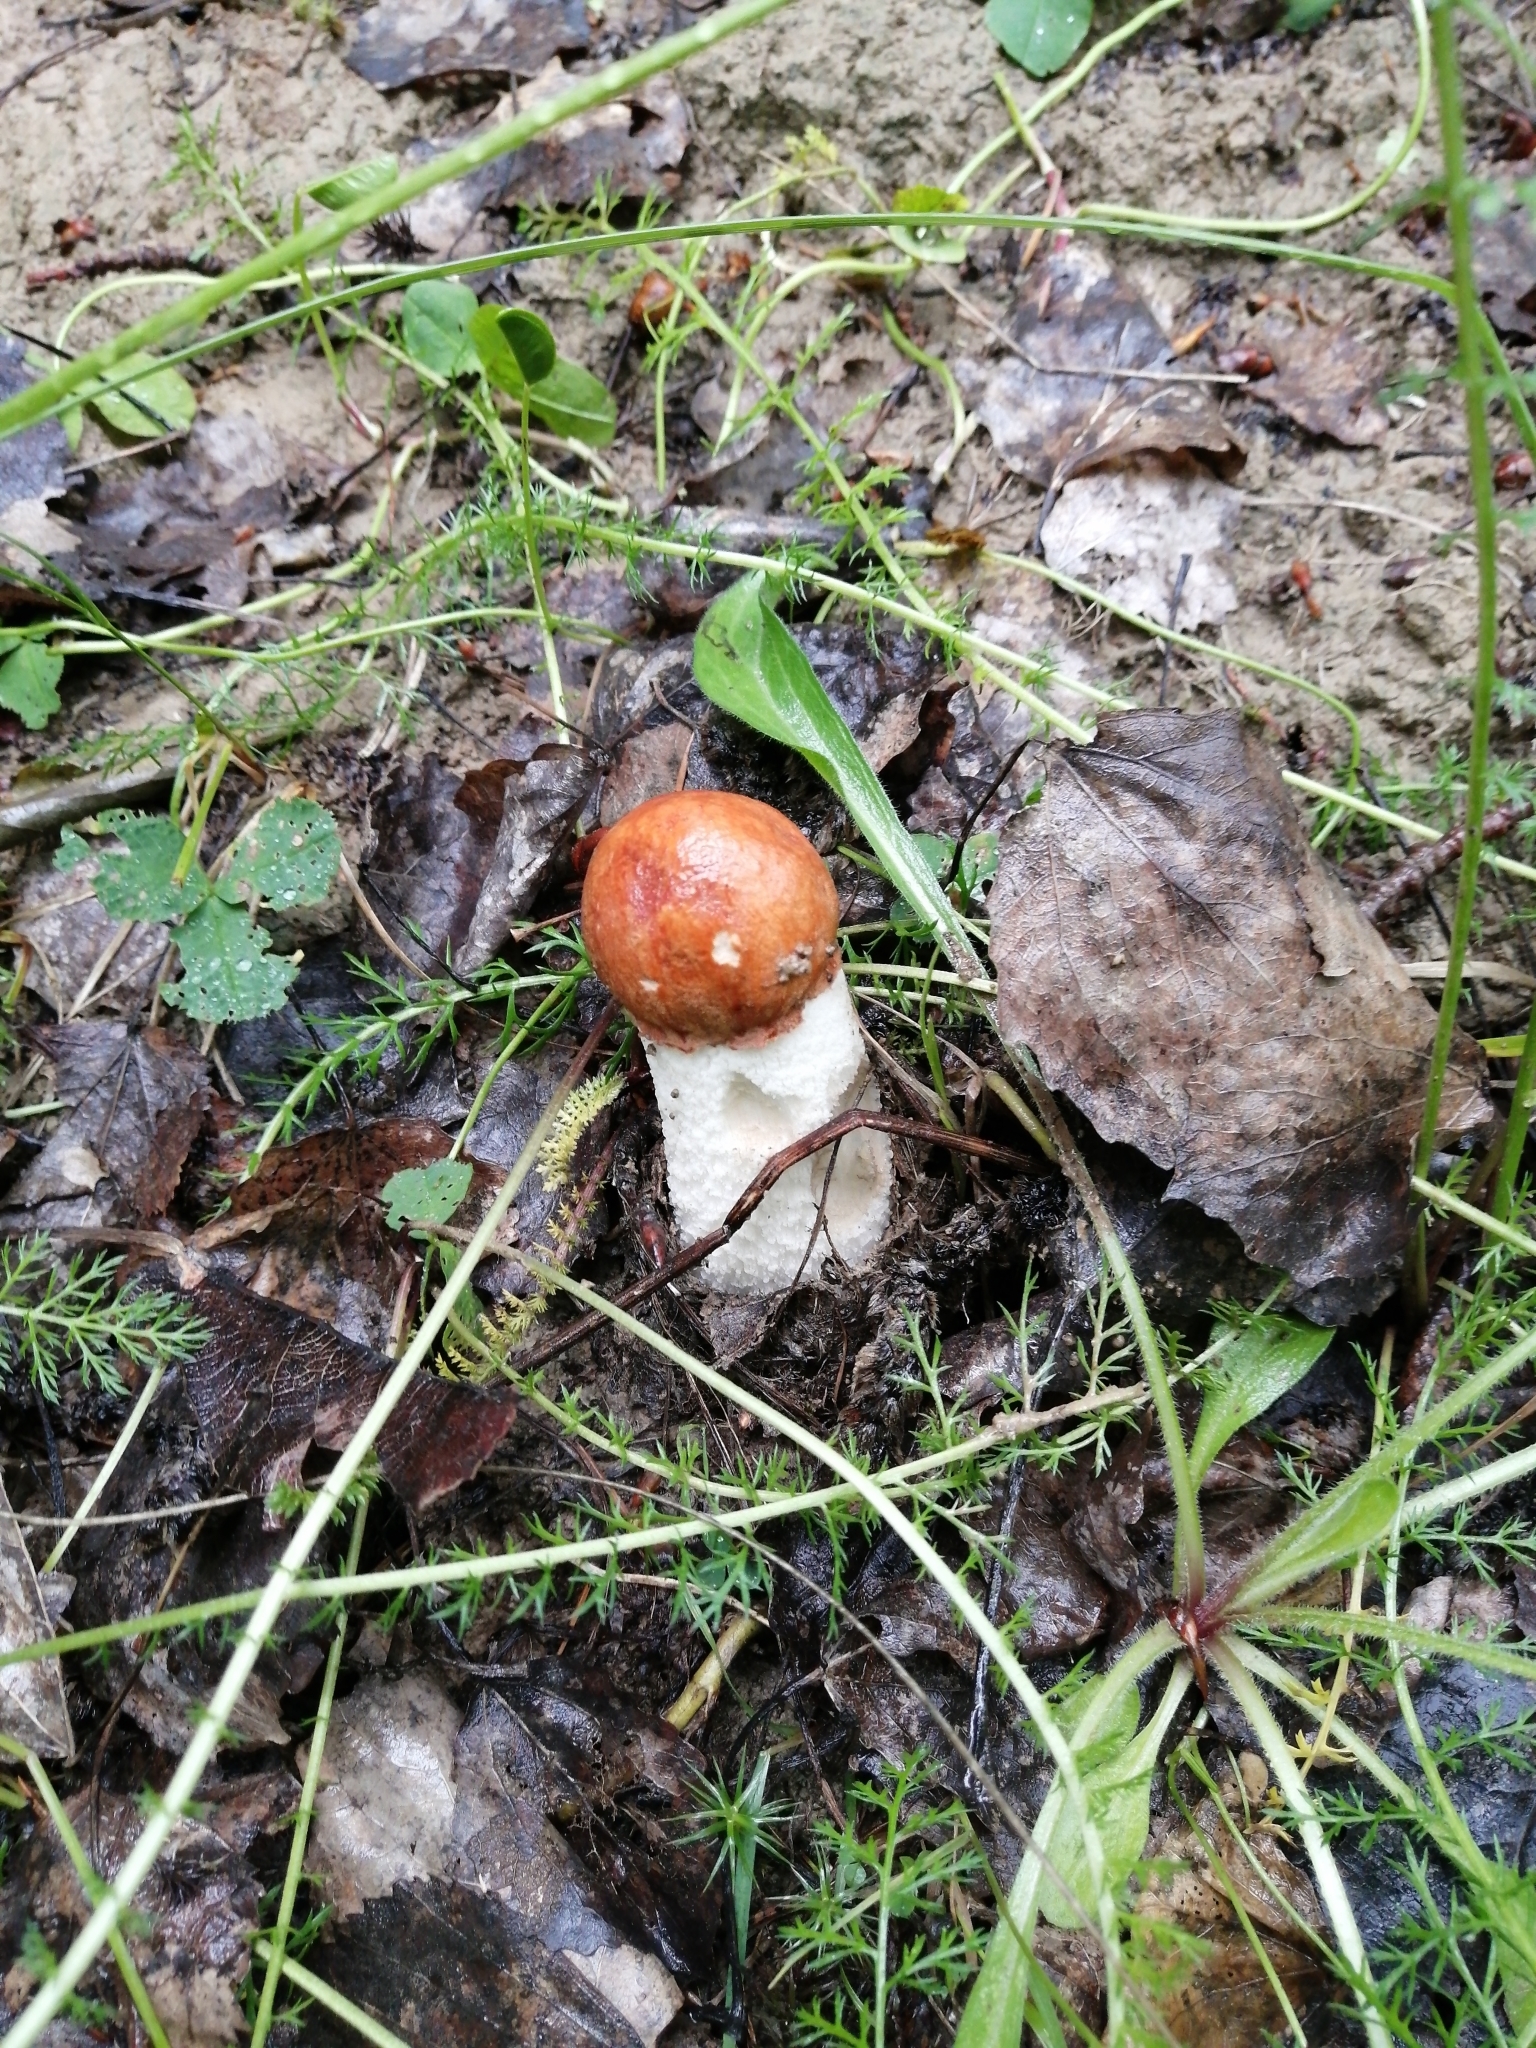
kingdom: Fungi
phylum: Basidiomycota
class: Agaricomycetes
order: Boletales
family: Boletaceae
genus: Leccinum
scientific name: Leccinum albostipitatum
